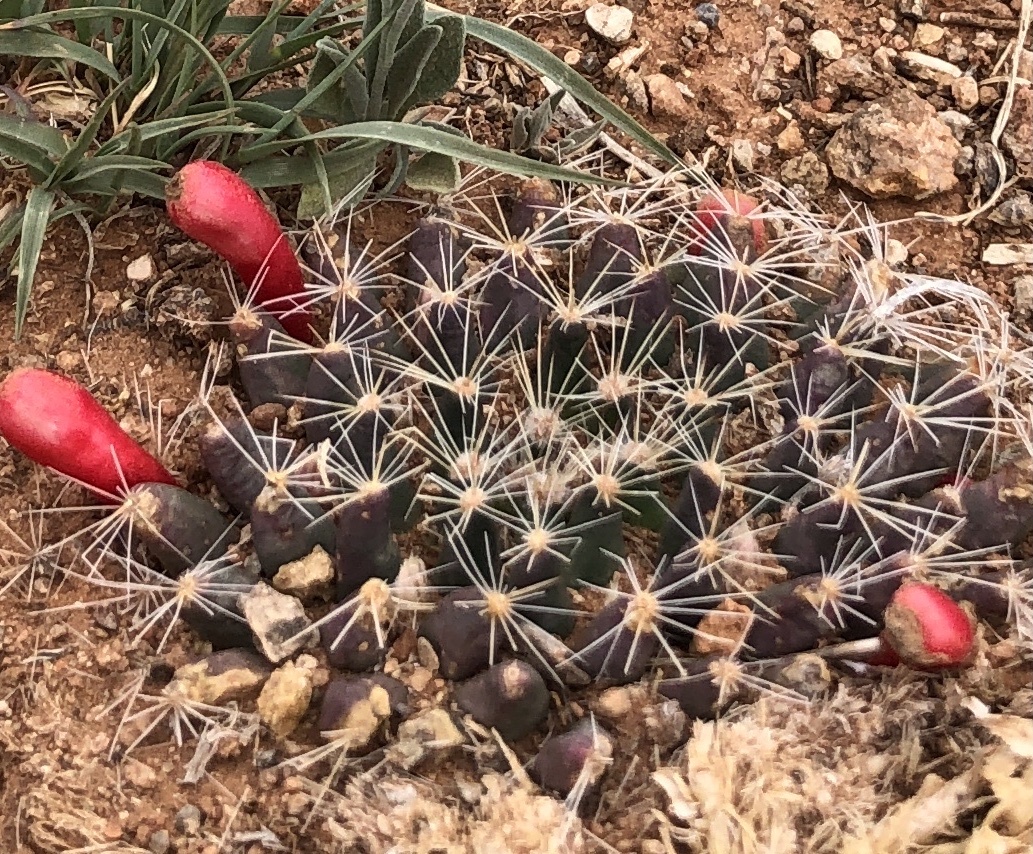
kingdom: Plantae
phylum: Tracheophyta
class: Magnoliopsida
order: Caryophyllales
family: Cactaceae
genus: Mammillaria
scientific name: Mammillaria heyderi
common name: Little nipple cactus
